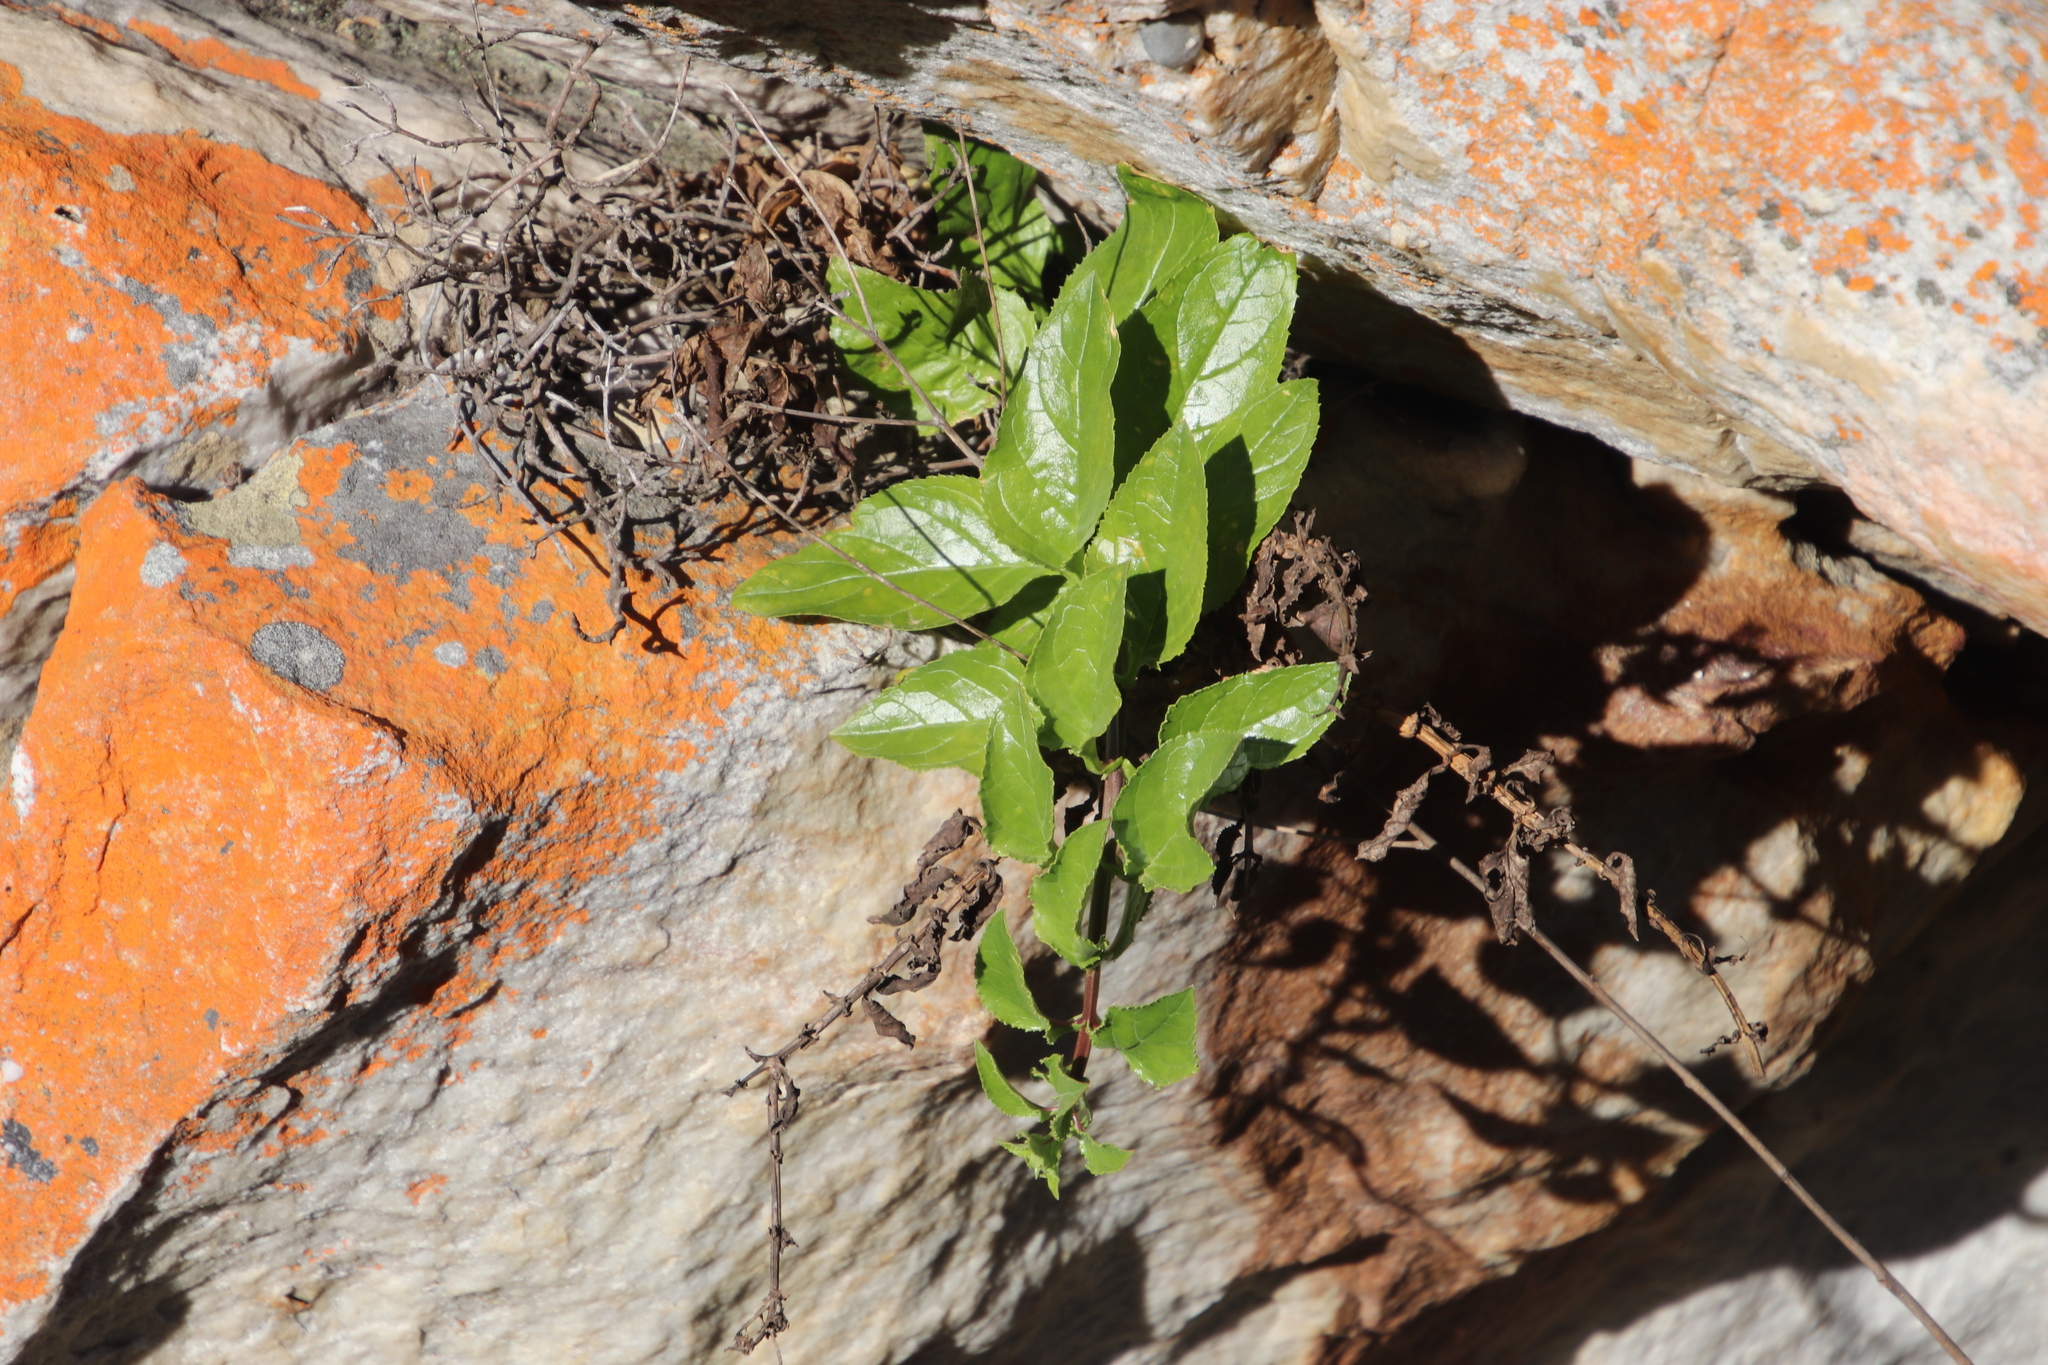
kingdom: Plantae
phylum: Tracheophyta
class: Magnoliopsida
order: Lamiales
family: Scrophulariaceae
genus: Teedia
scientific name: Teedia lucida
